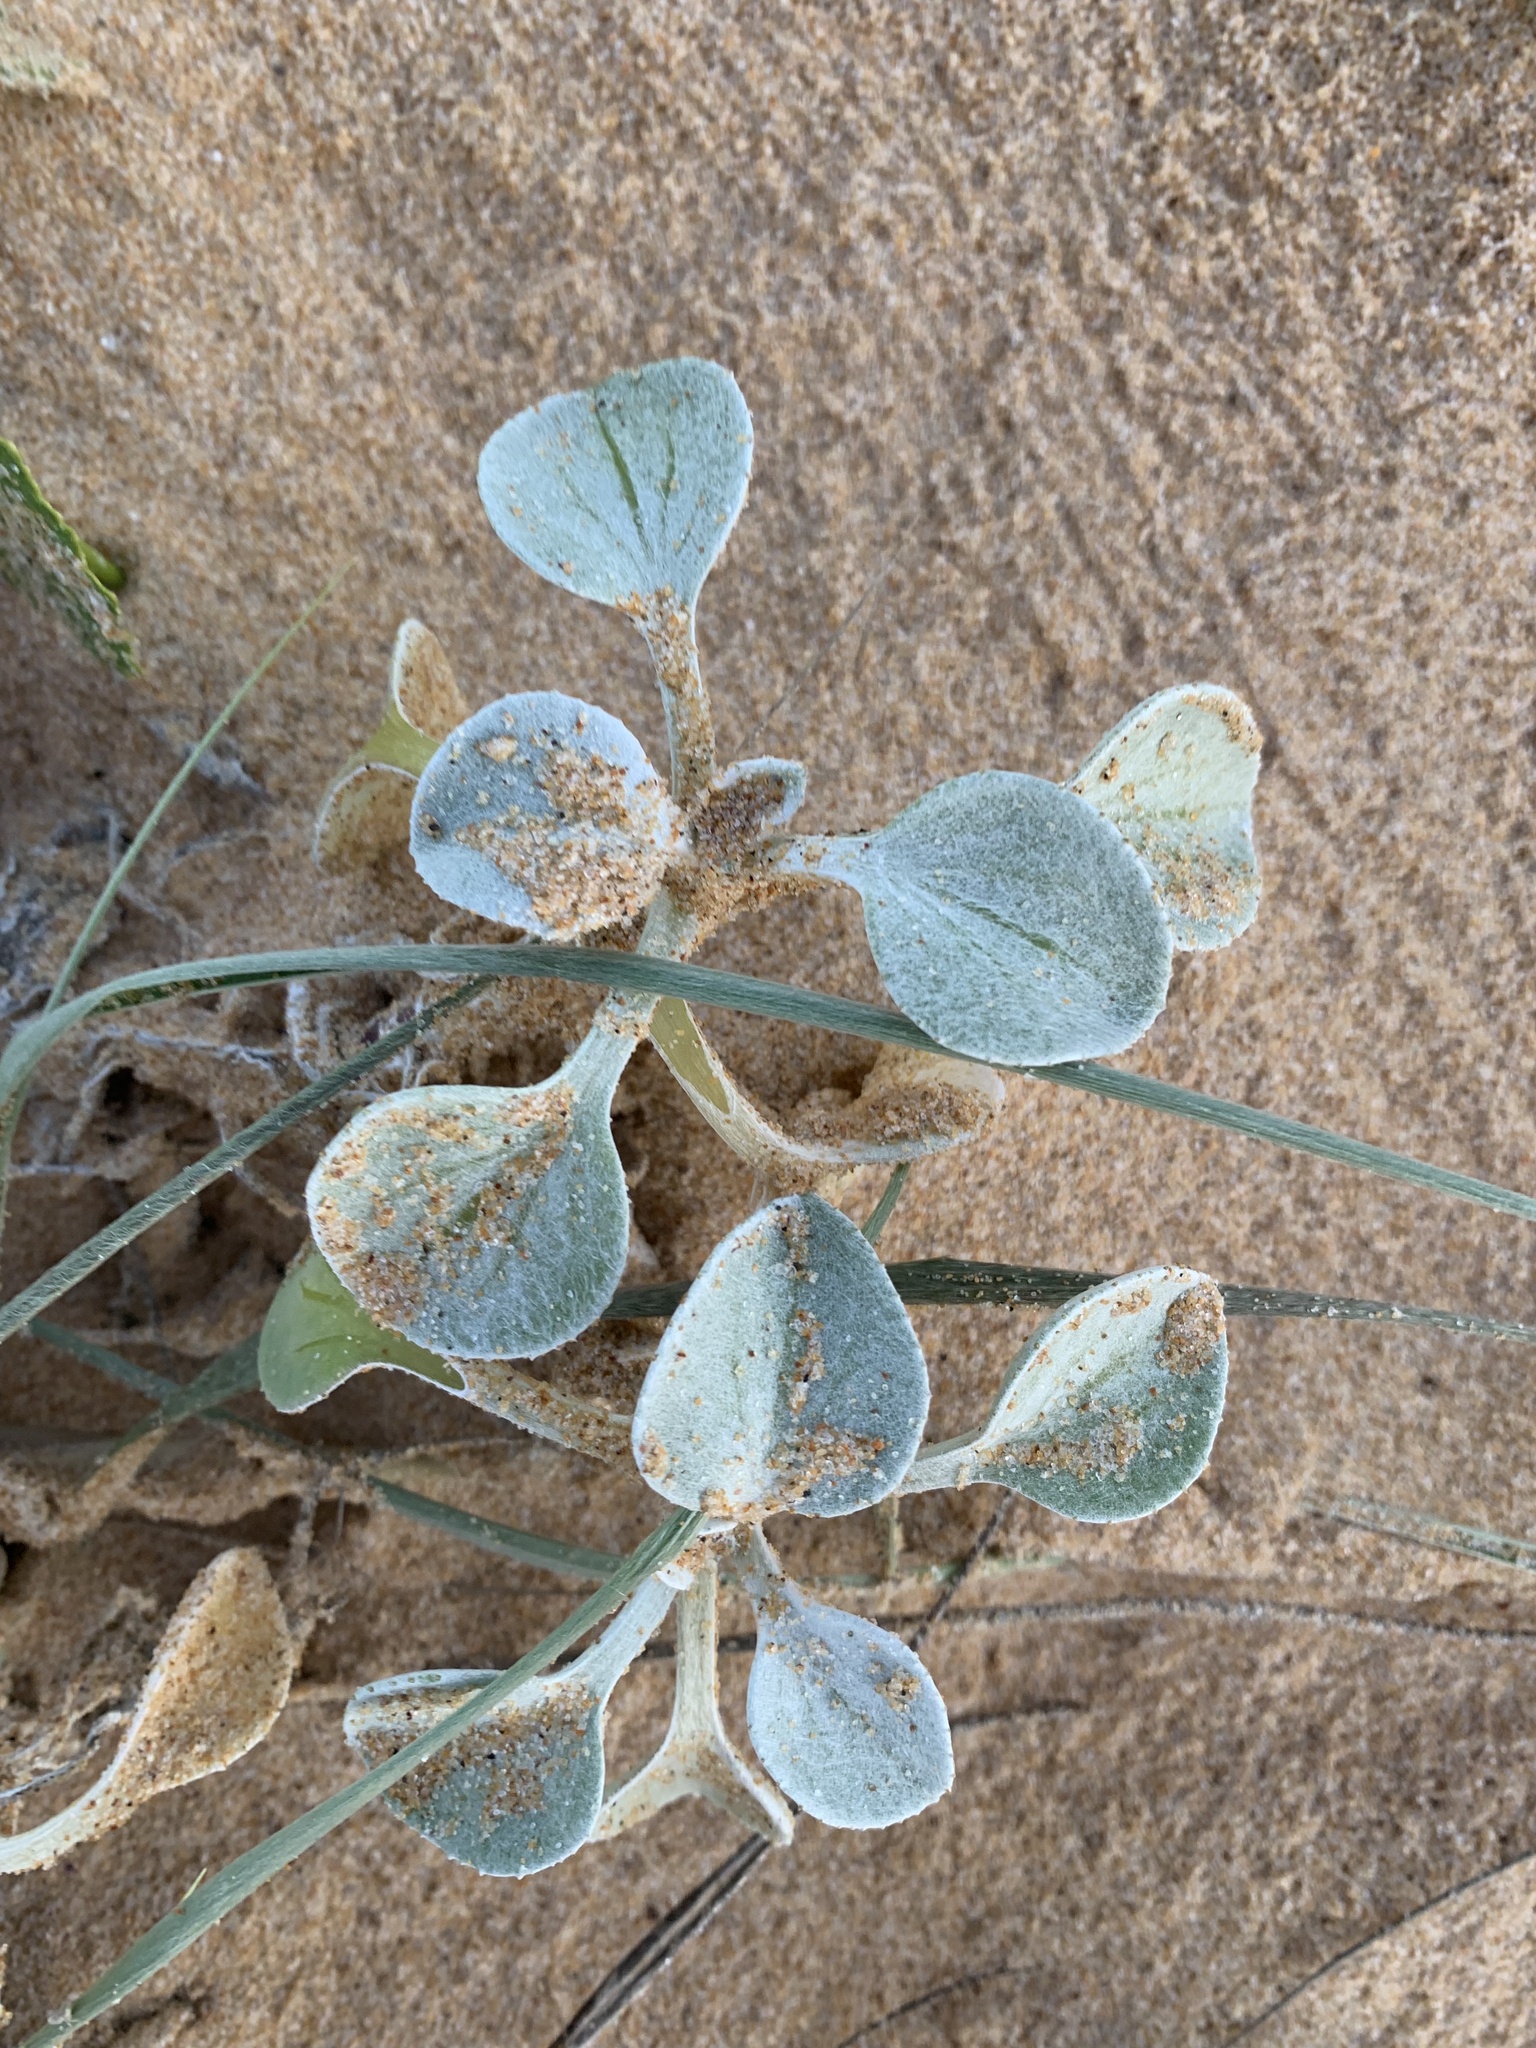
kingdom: Plantae
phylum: Tracheophyta
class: Magnoliopsida
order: Asterales
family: Asteraceae
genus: Arctotheca
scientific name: Arctotheca populifolia
